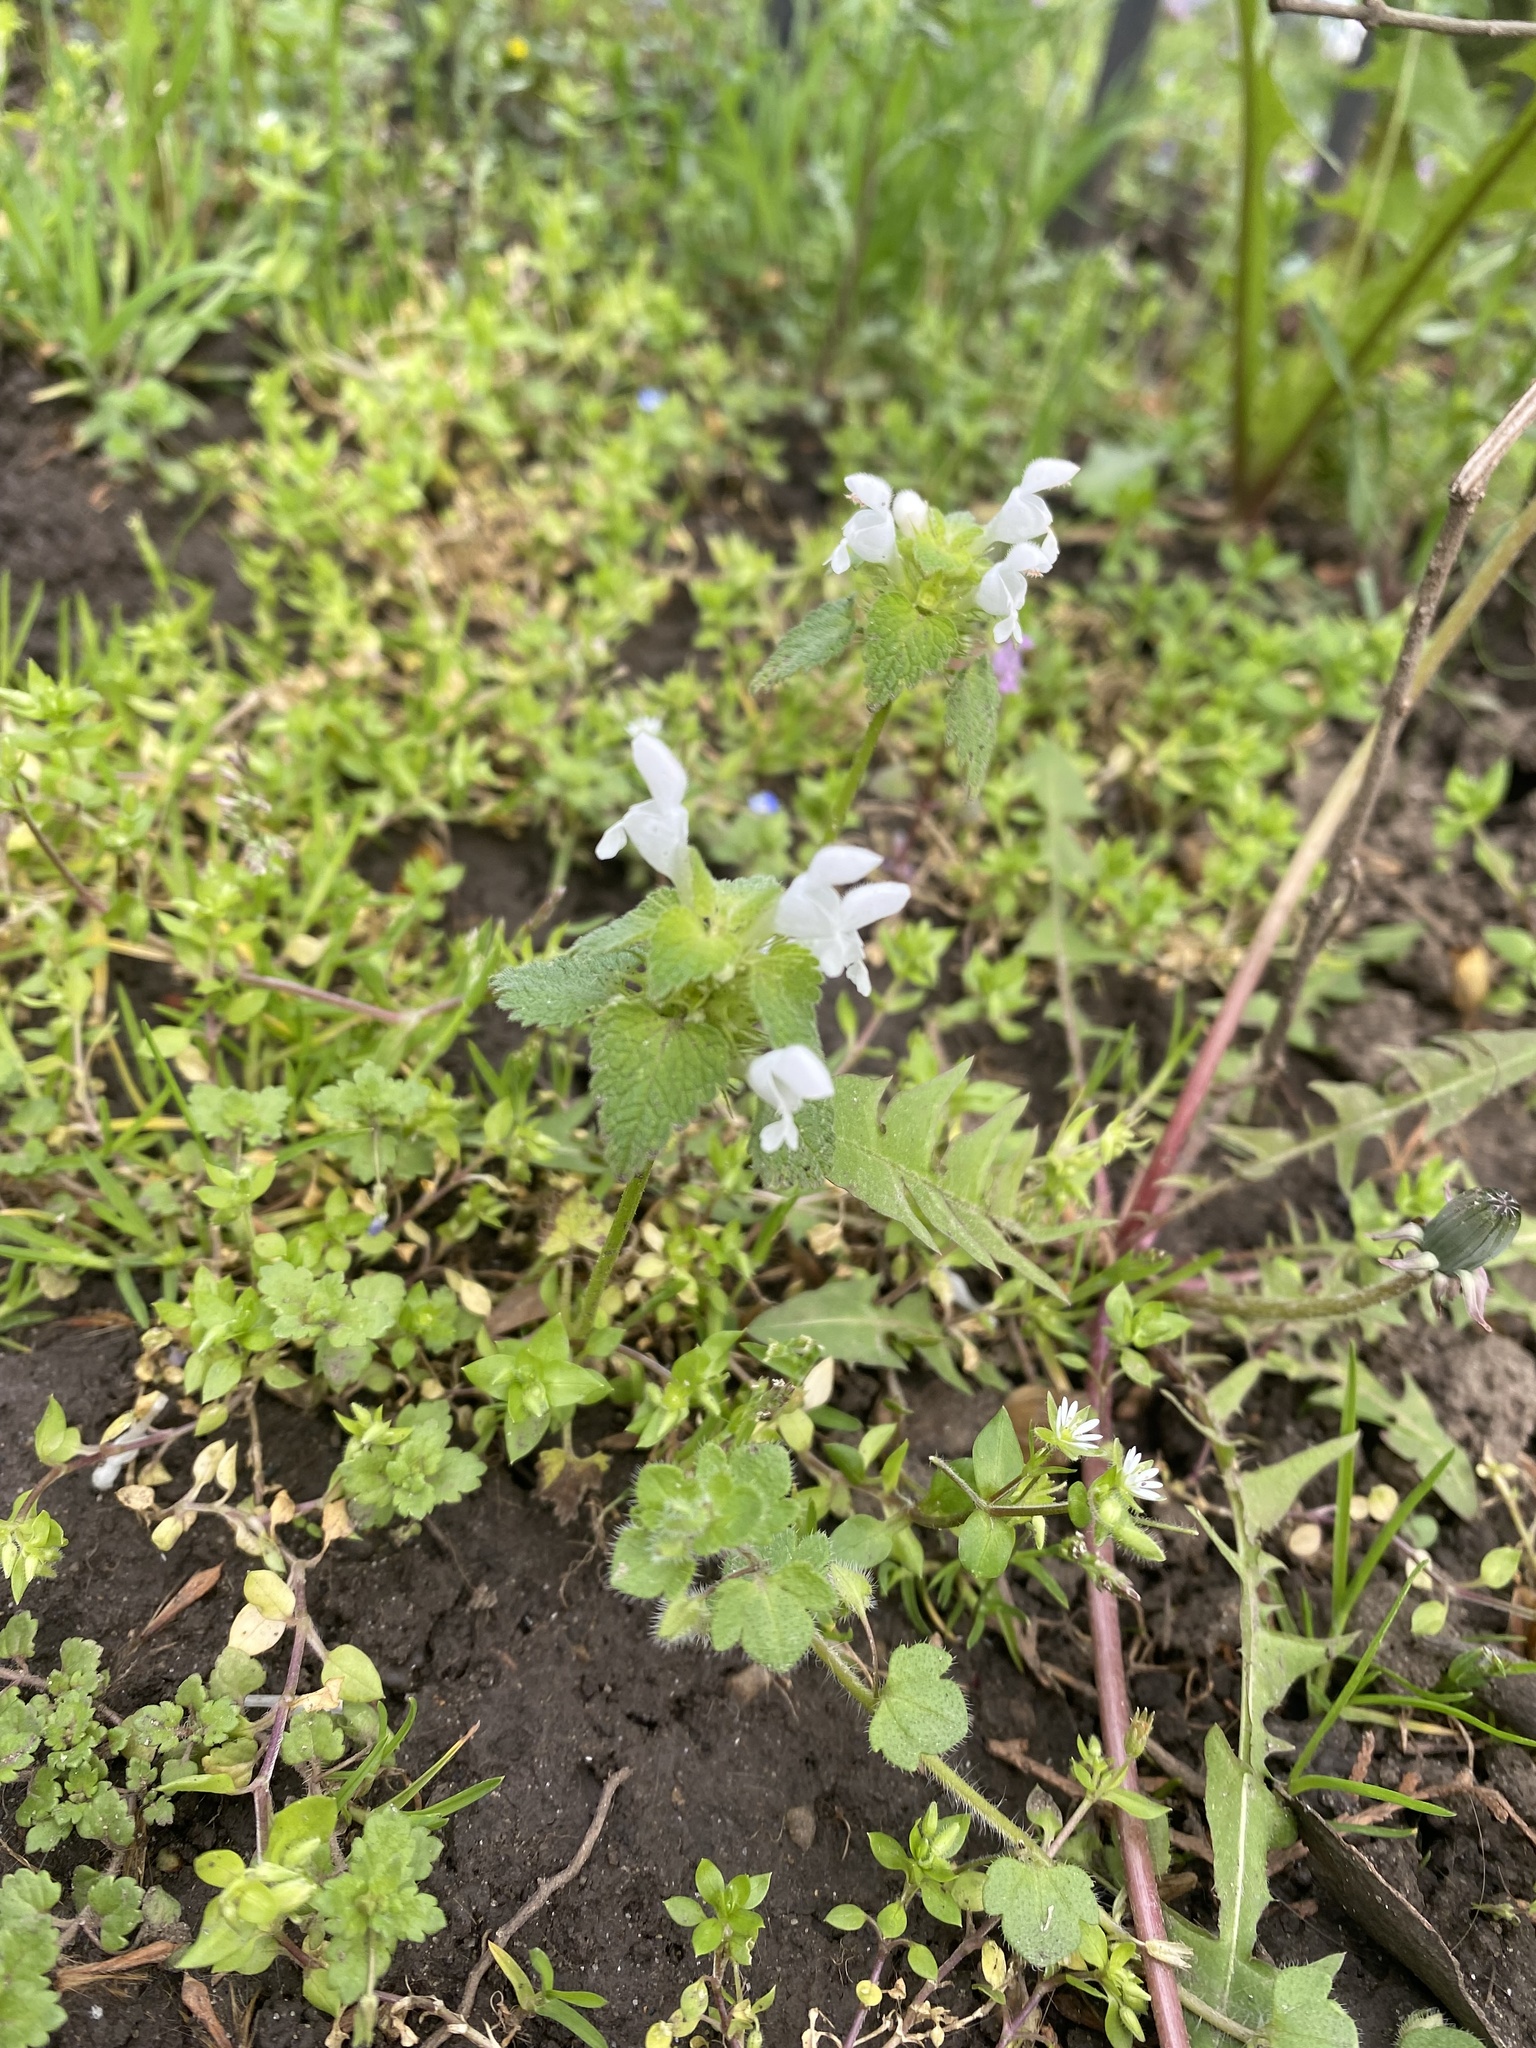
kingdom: Plantae
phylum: Tracheophyta
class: Magnoliopsida
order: Lamiales
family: Lamiaceae
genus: Lamium
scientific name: Lamium purpureum
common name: Red dead-nettle
